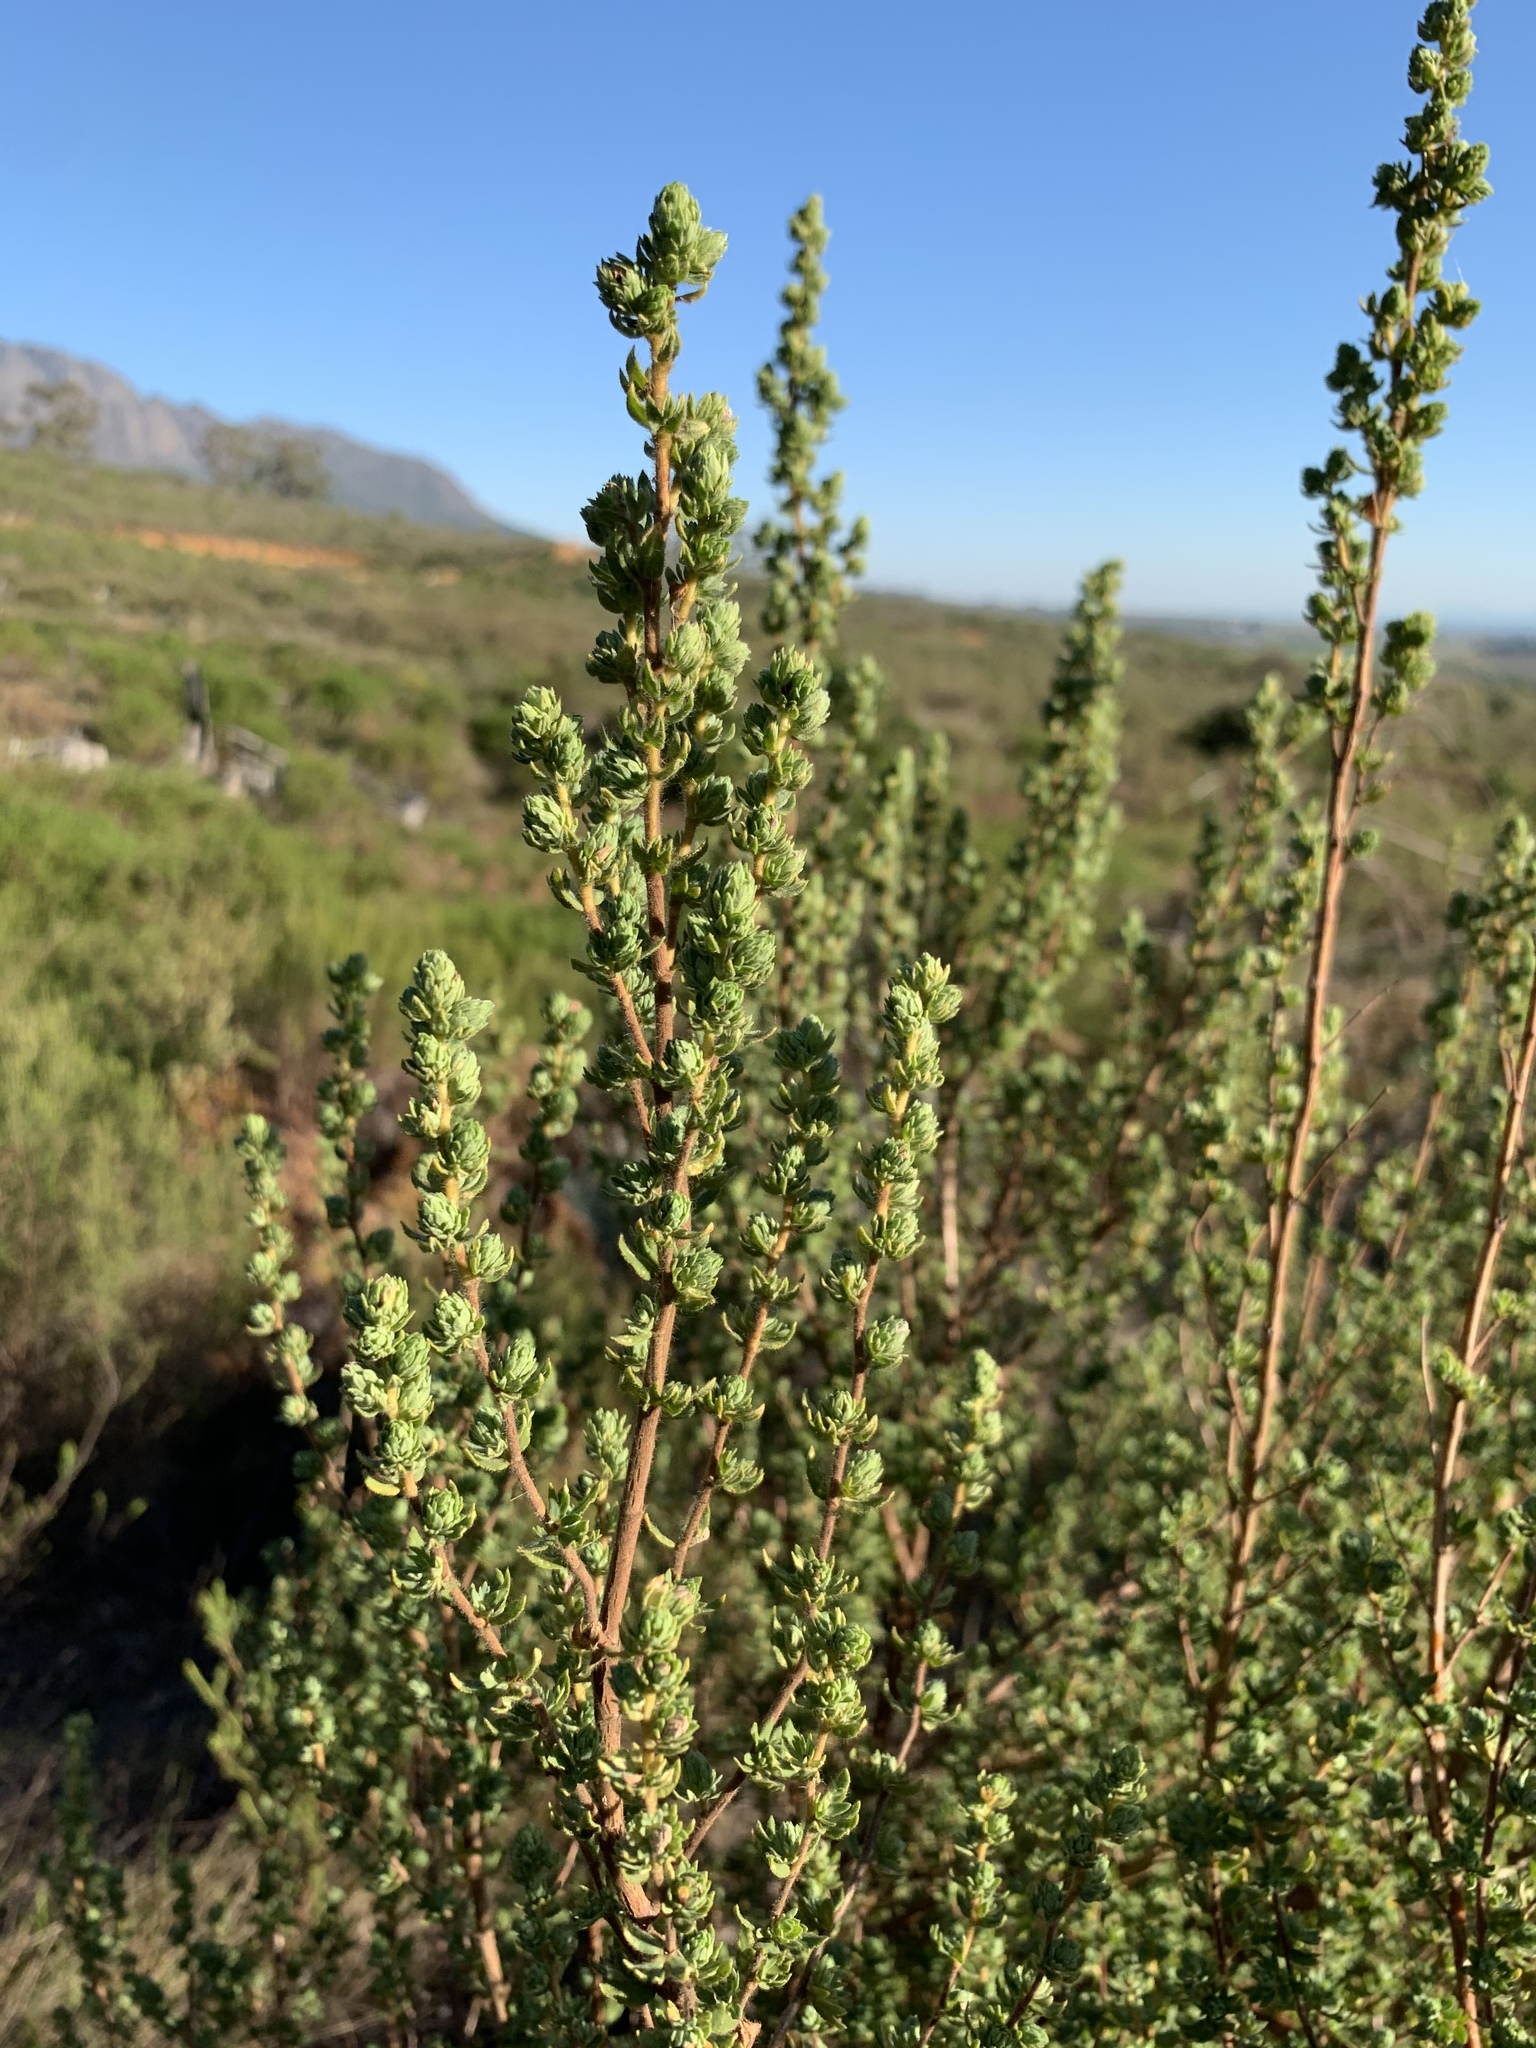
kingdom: Plantae
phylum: Tracheophyta
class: Magnoliopsida
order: Rosales
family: Rosaceae
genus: Cliffortia
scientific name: Cliffortia polygonifolia
